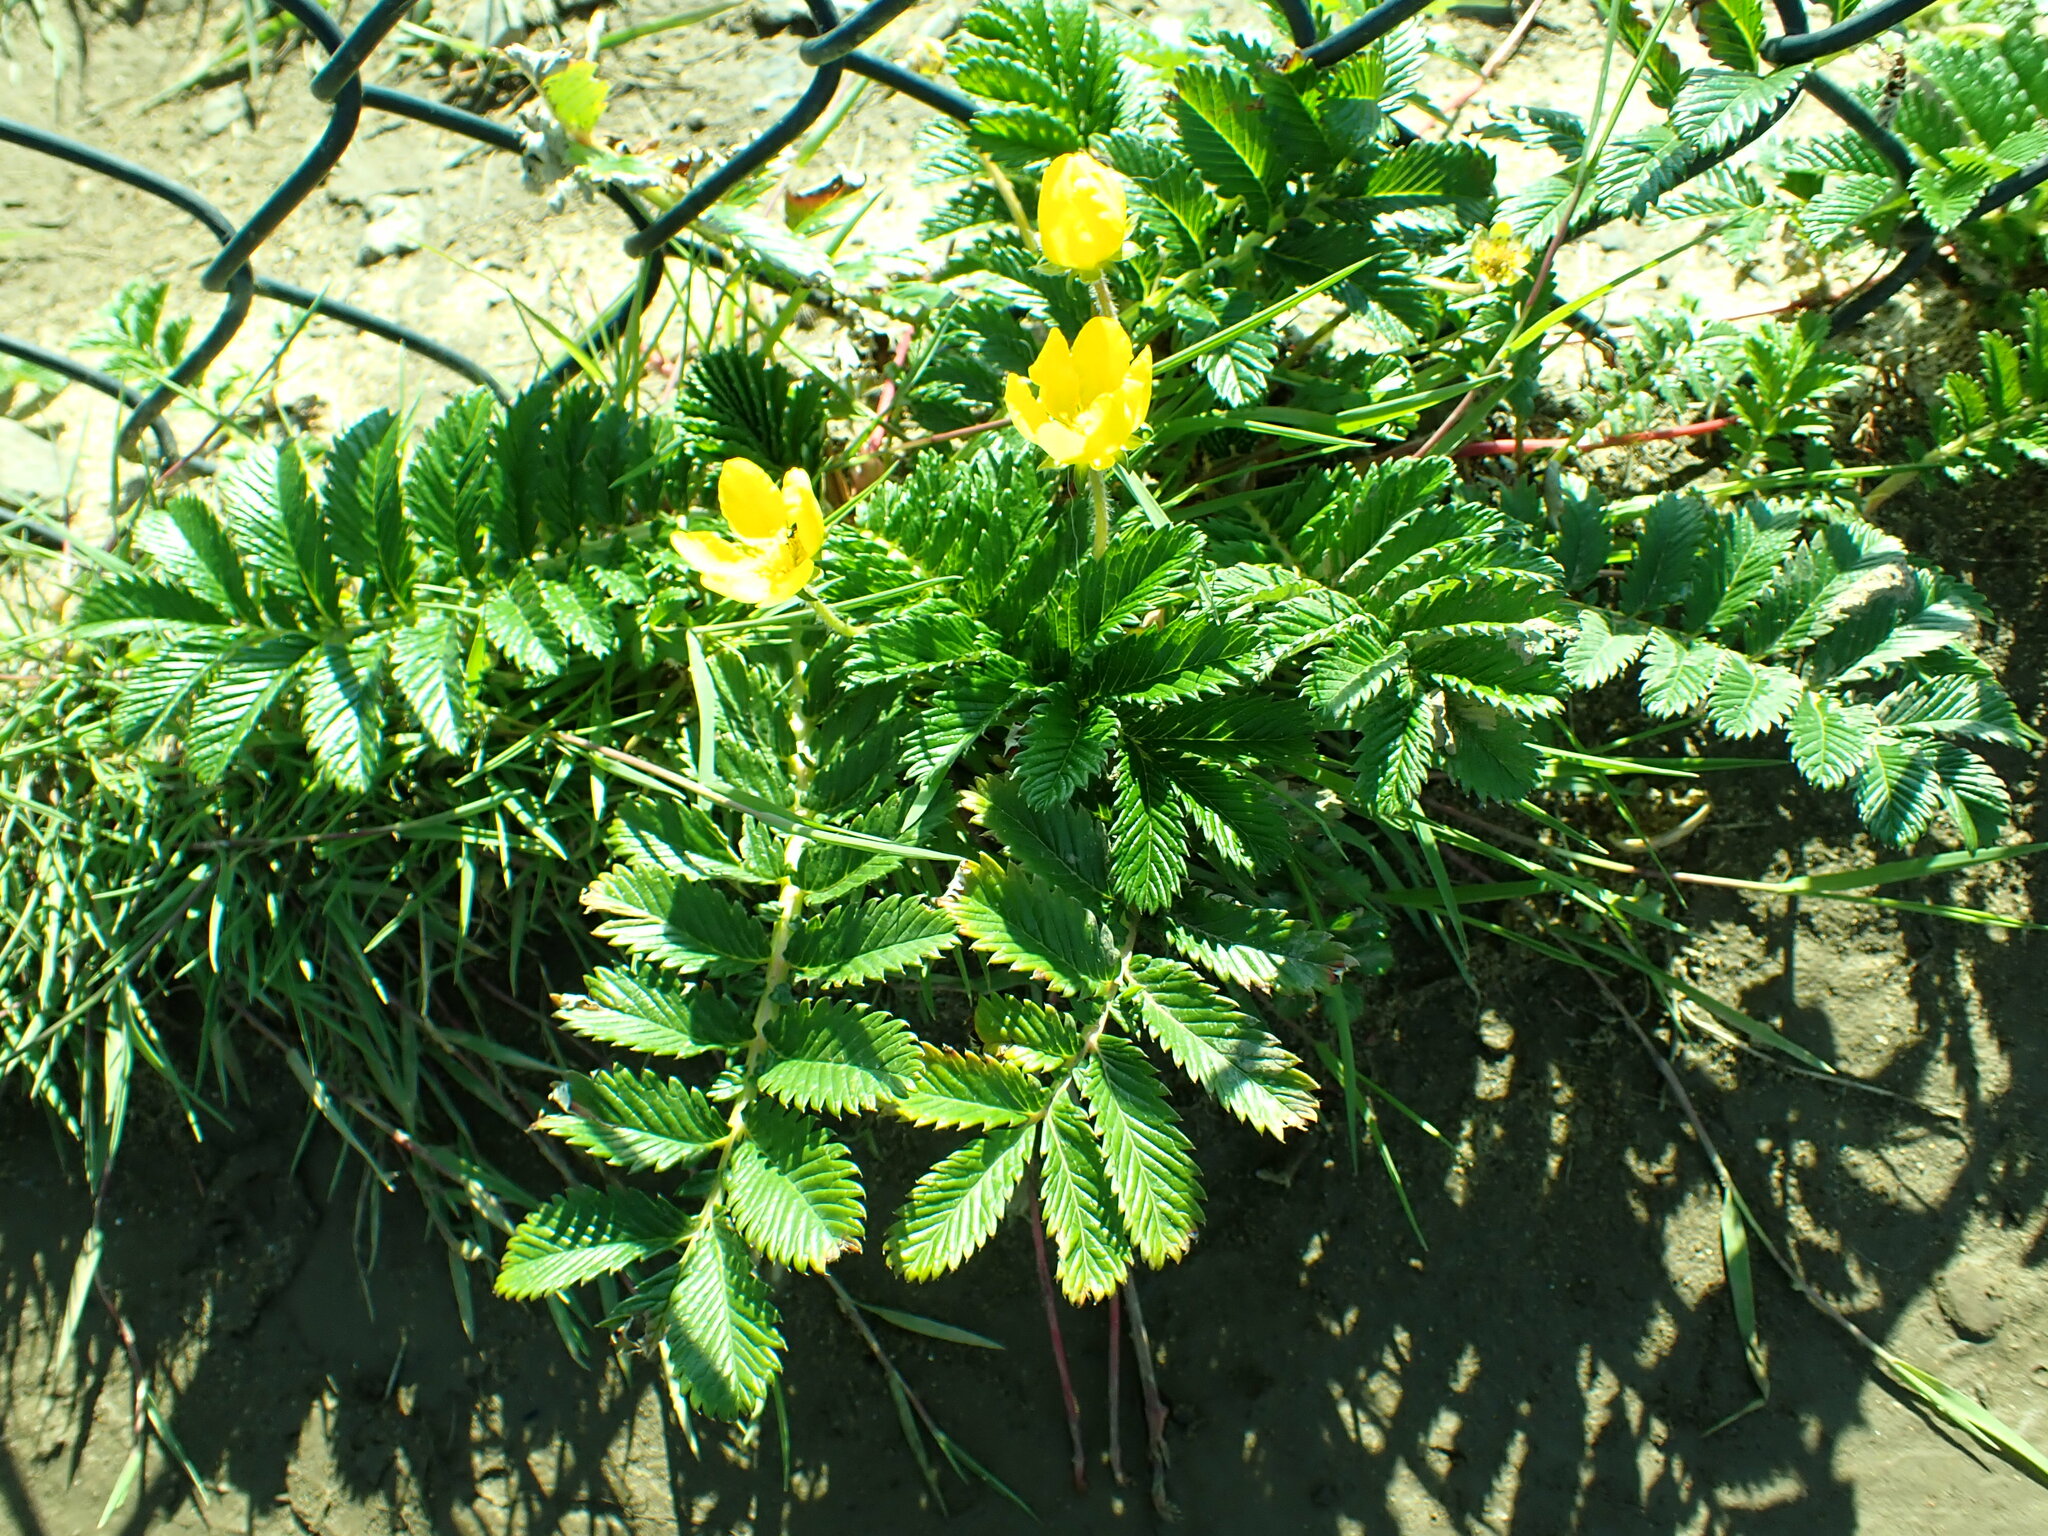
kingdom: Plantae
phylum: Tracheophyta
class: Magnoliopsida
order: Rosales
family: Rosaceae
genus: Argentina
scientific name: Argentina anserina
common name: Common silverweed
